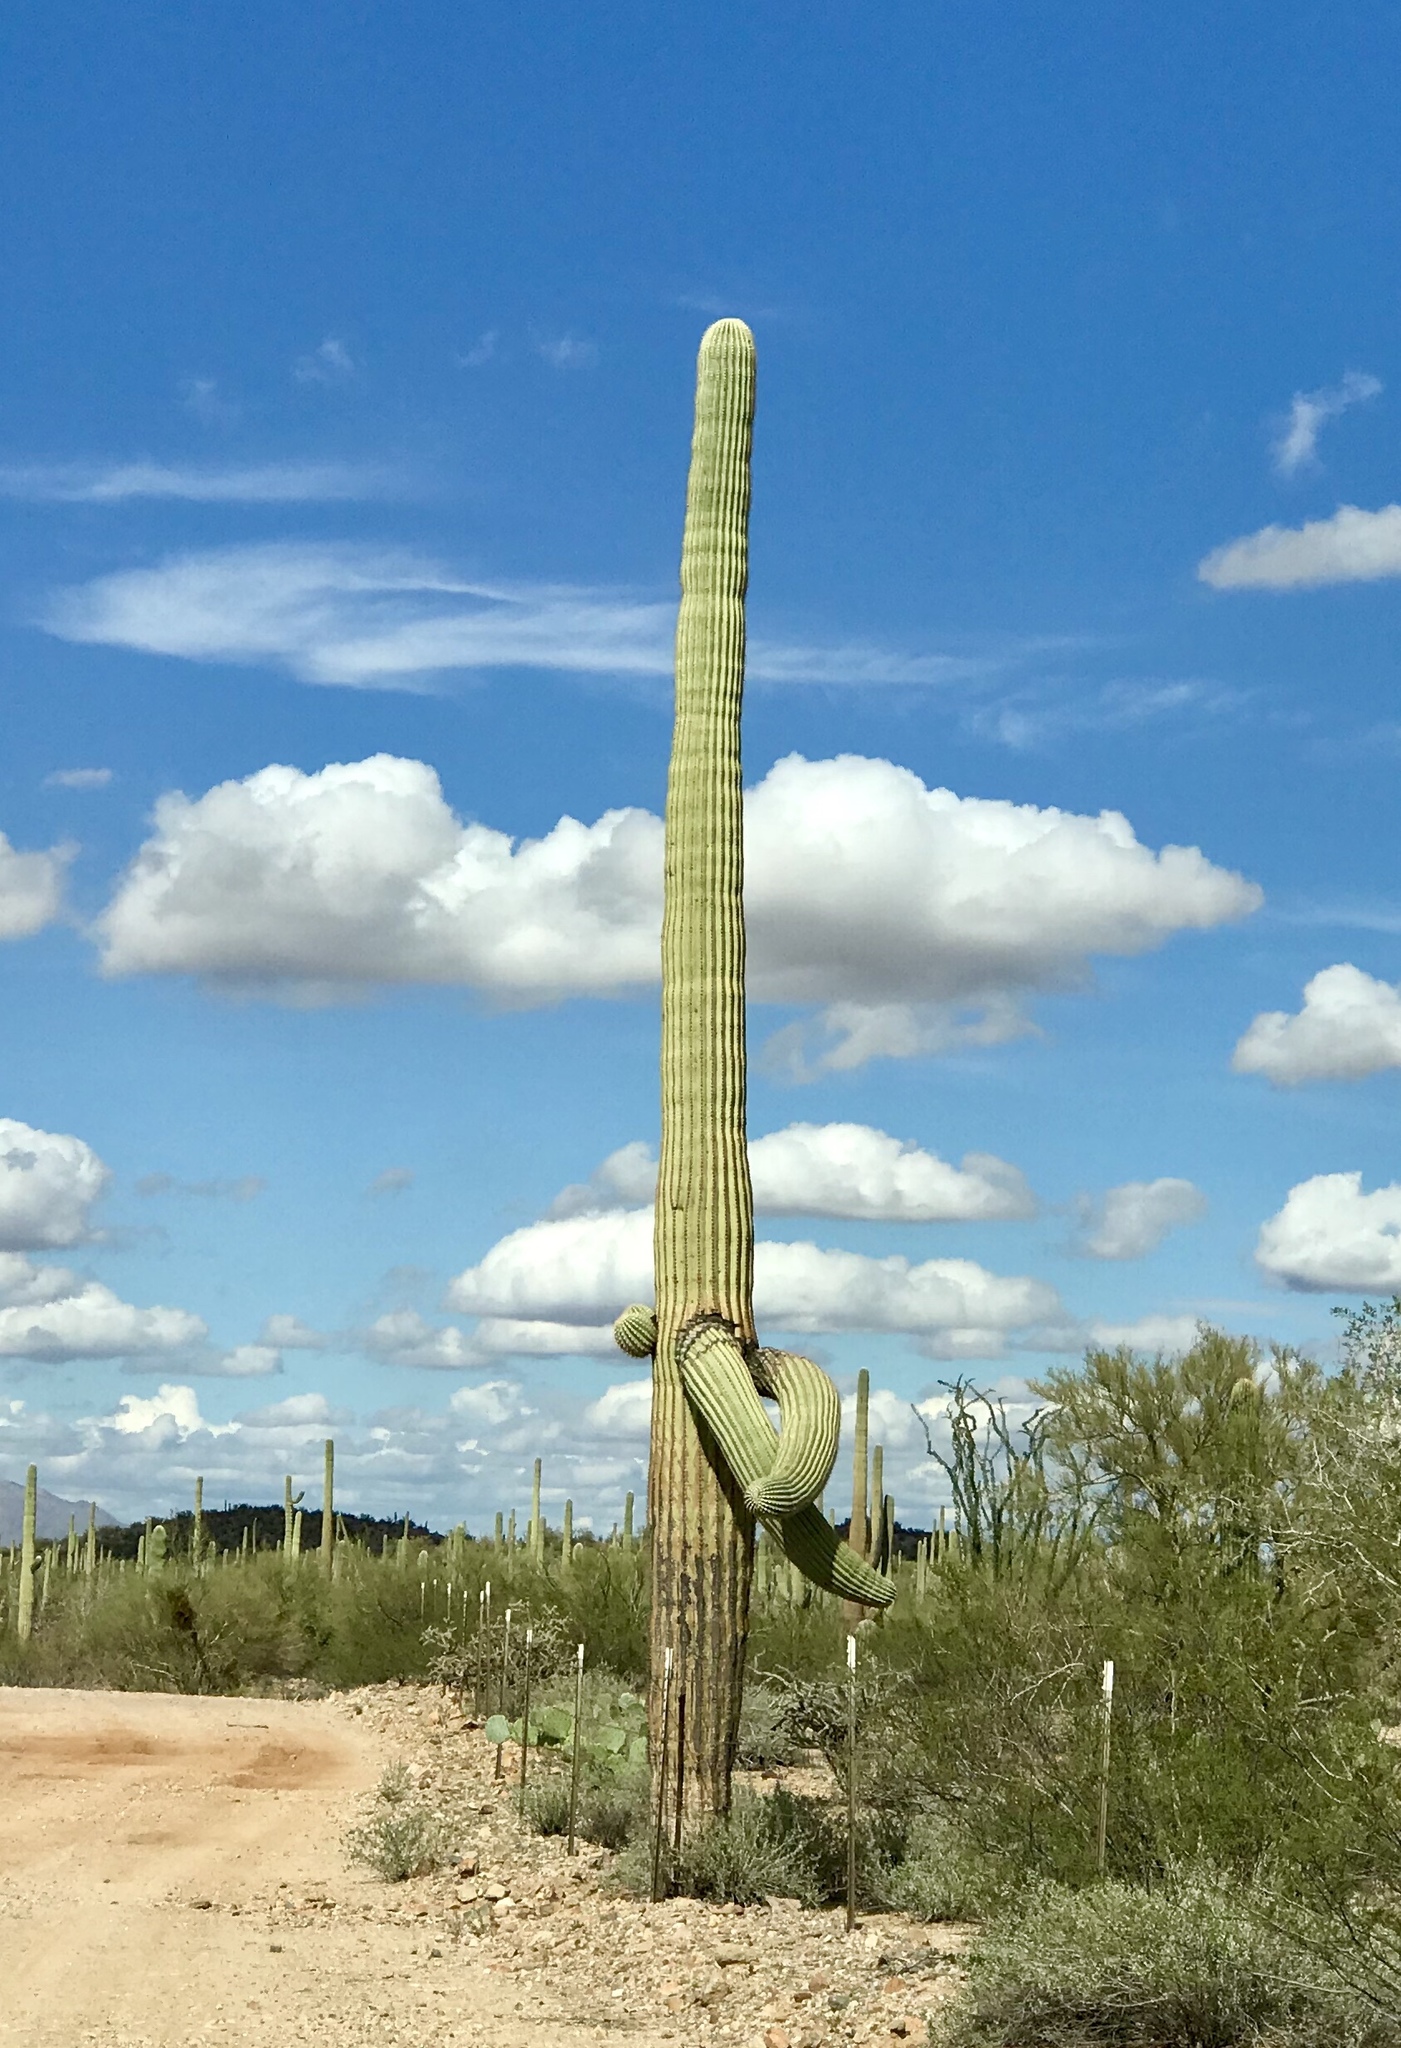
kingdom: Plantae
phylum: Tracheophyta
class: Magnoliopsida
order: Caryophyllales
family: Cactaceae
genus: Carnegiea
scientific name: Carnegiea gigantea
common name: Saguaro
